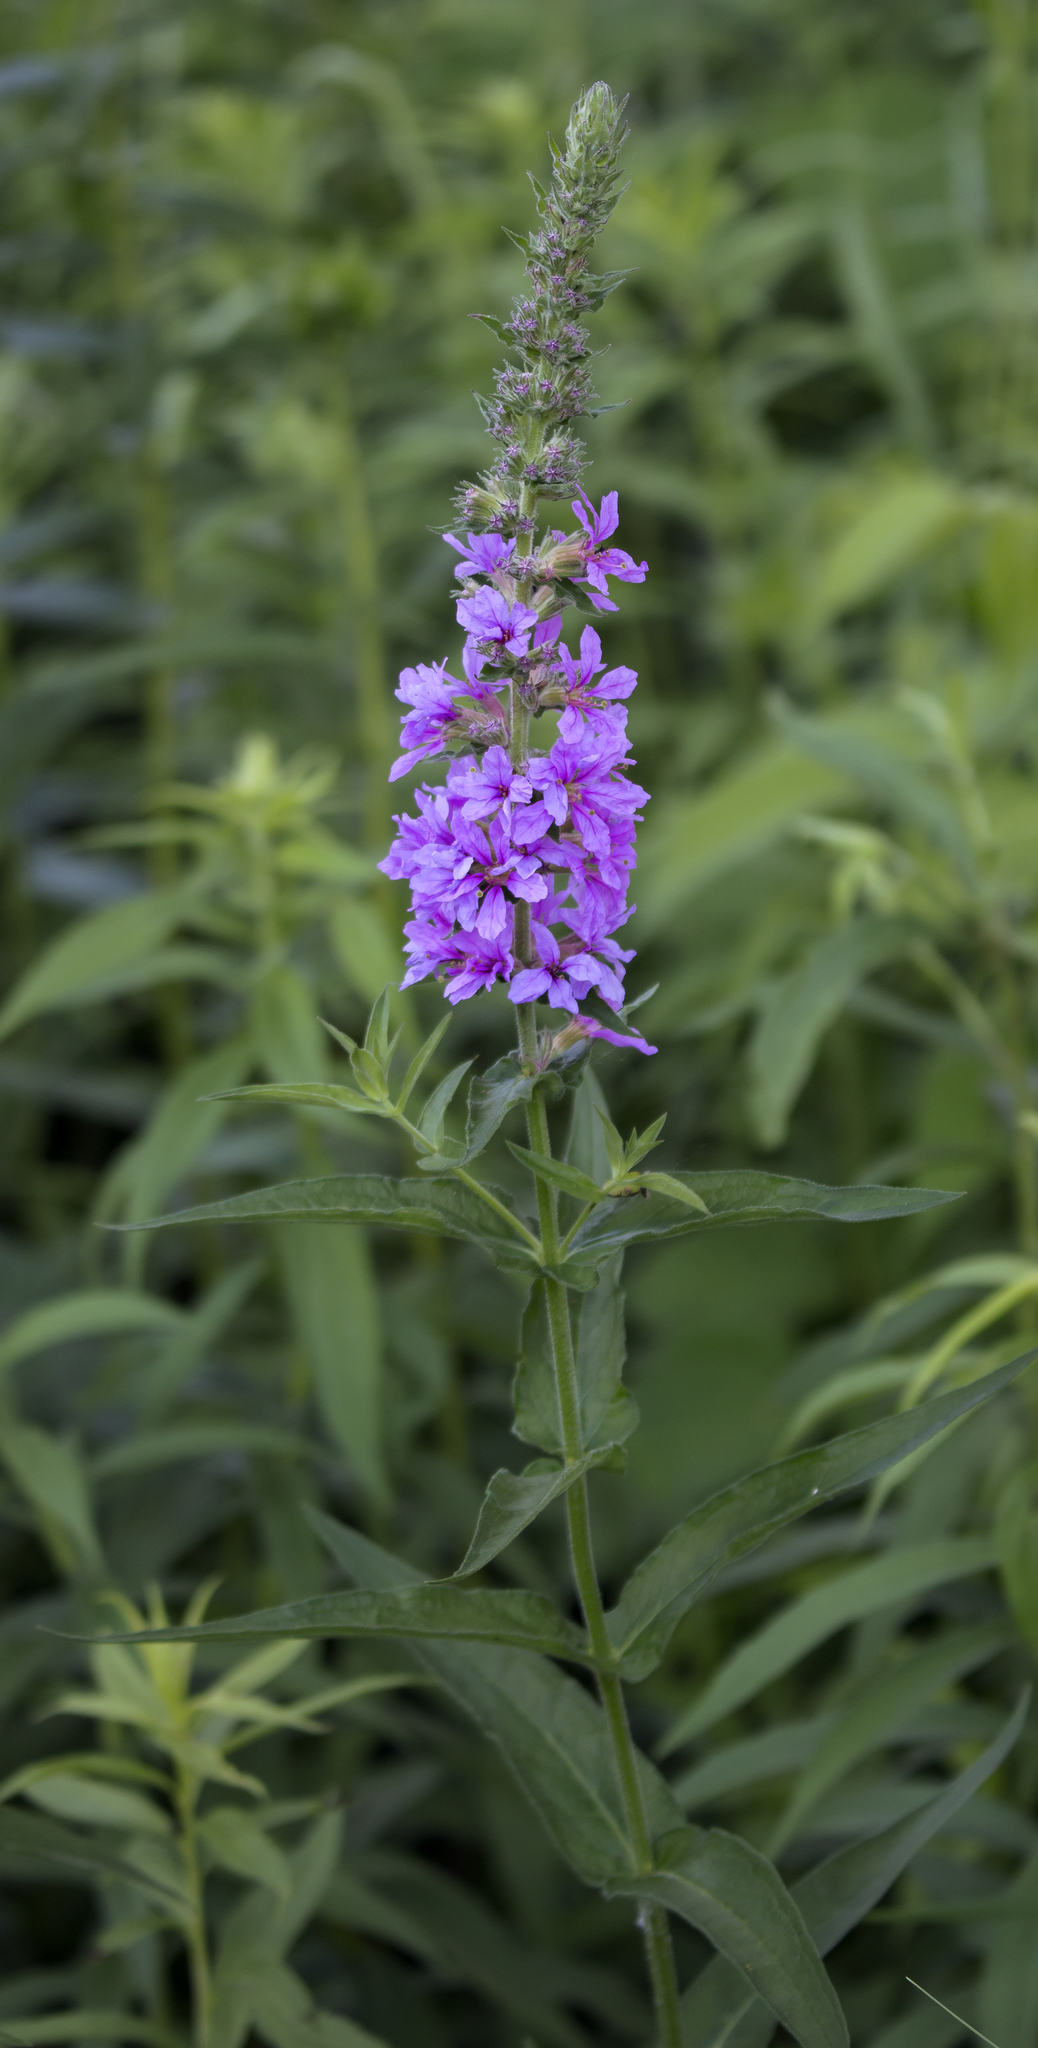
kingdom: Plantae
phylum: Tracheophyta
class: Magnoliopsida
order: Myrtales
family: Lythraceae
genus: Lythrum
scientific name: Lythrum salicaria
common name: Purple loosestrife
